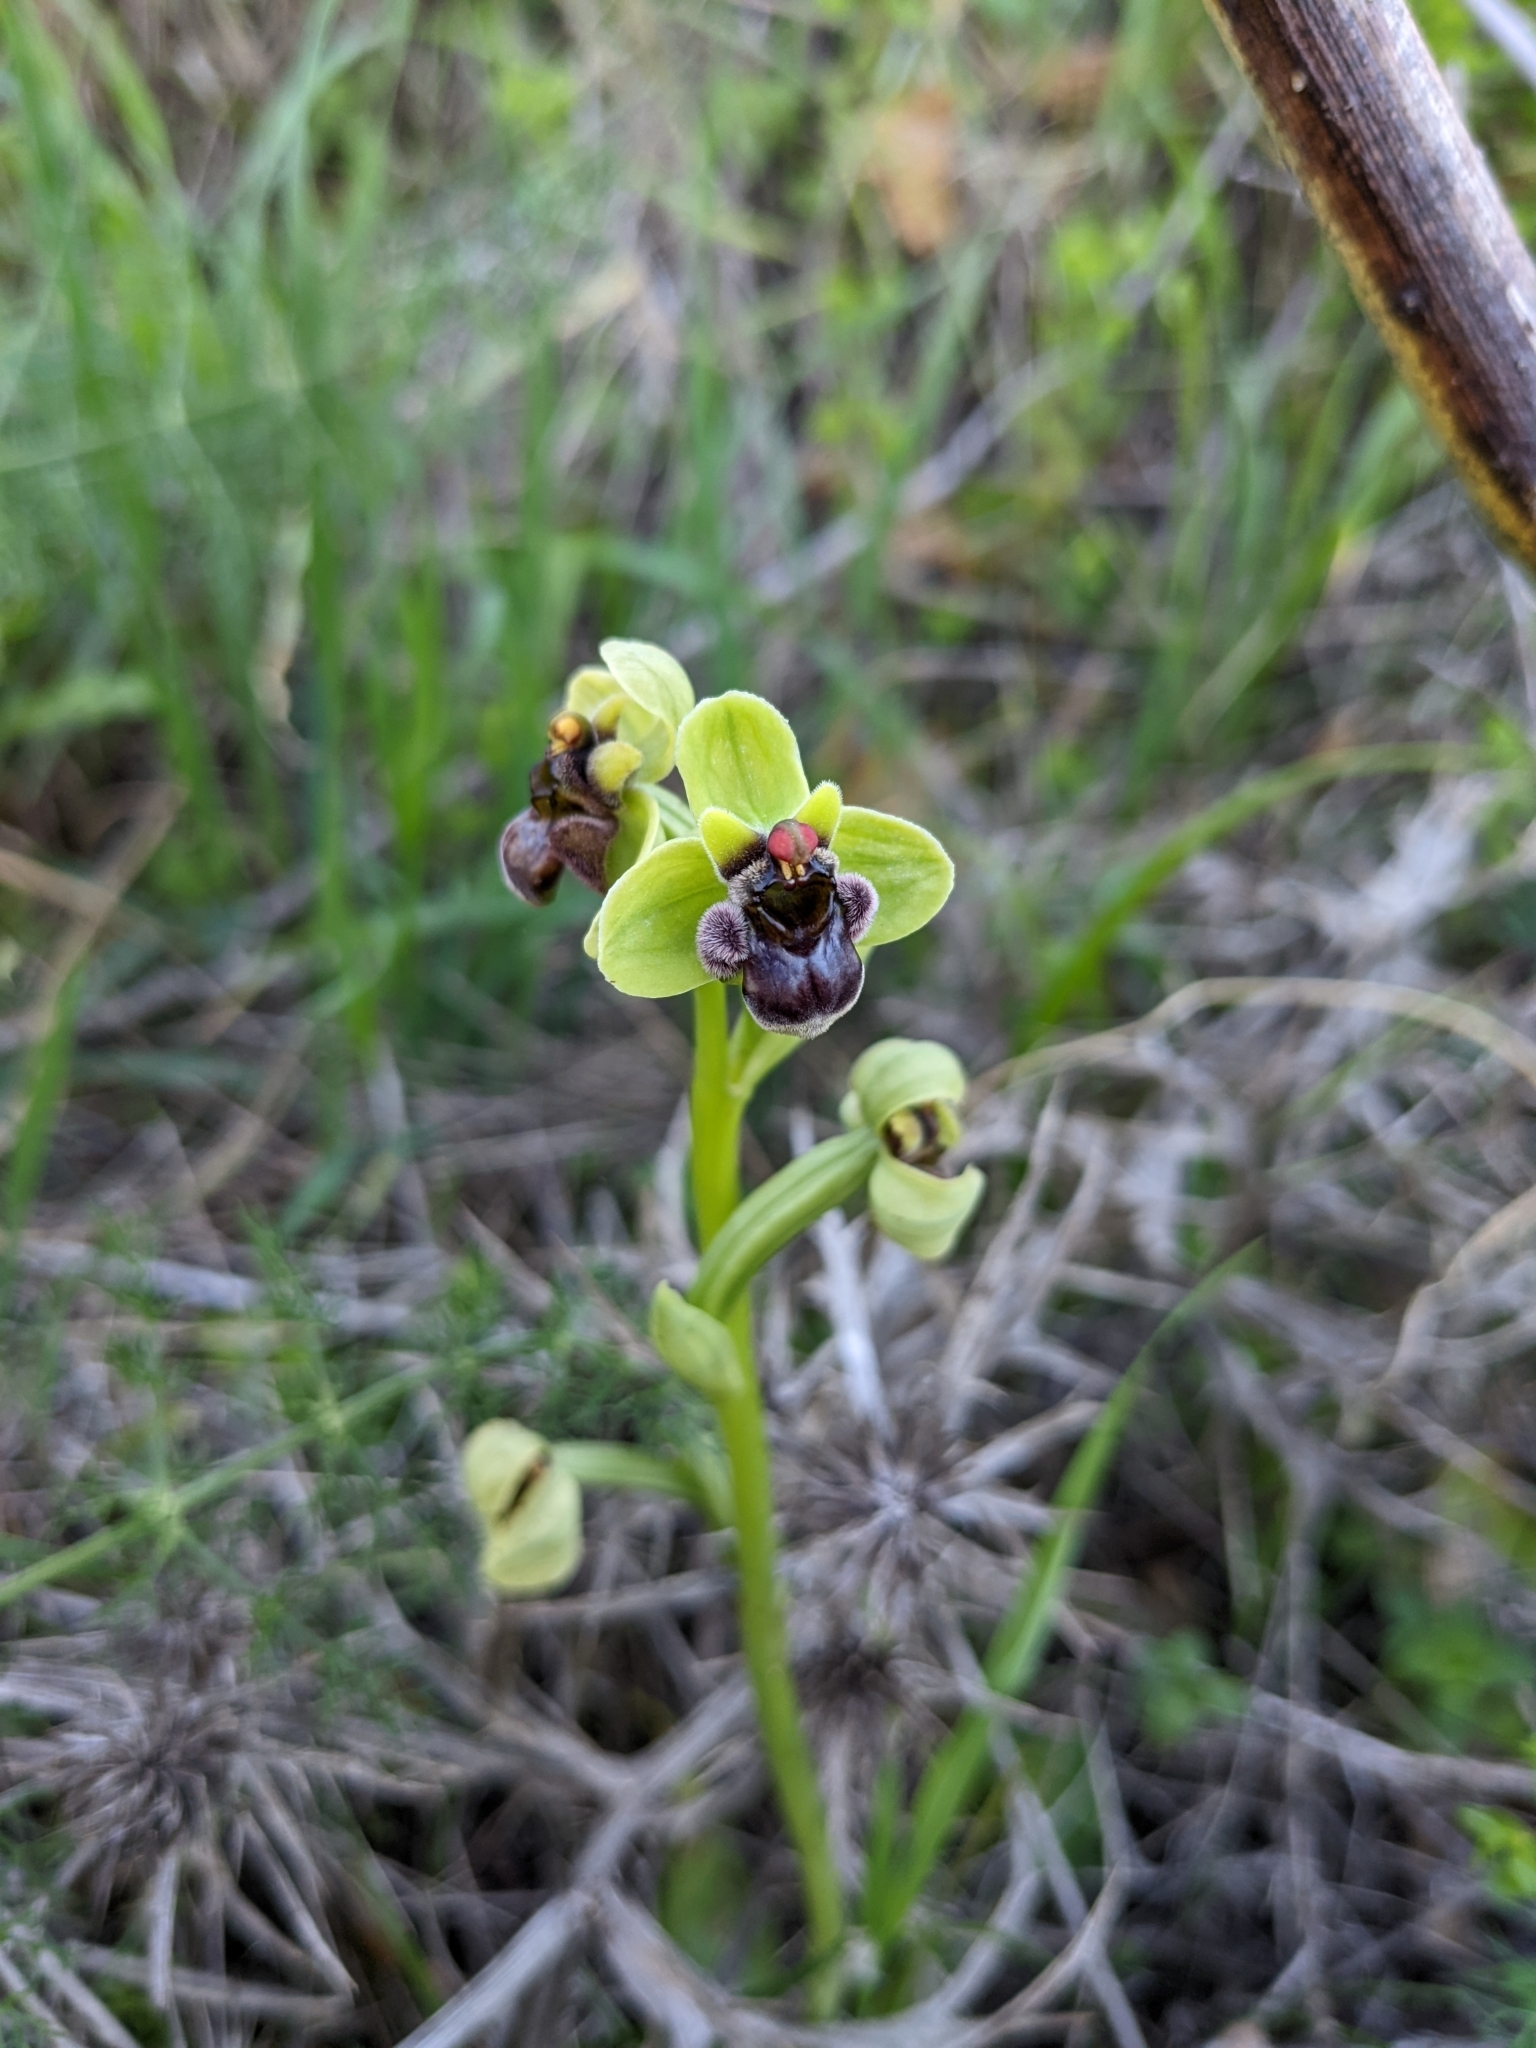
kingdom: Plantae
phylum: Tracheophyta
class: Liliopsida
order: Asparagales
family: Orchidaceae
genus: Ophrys
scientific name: Ophrys bombyliflora
